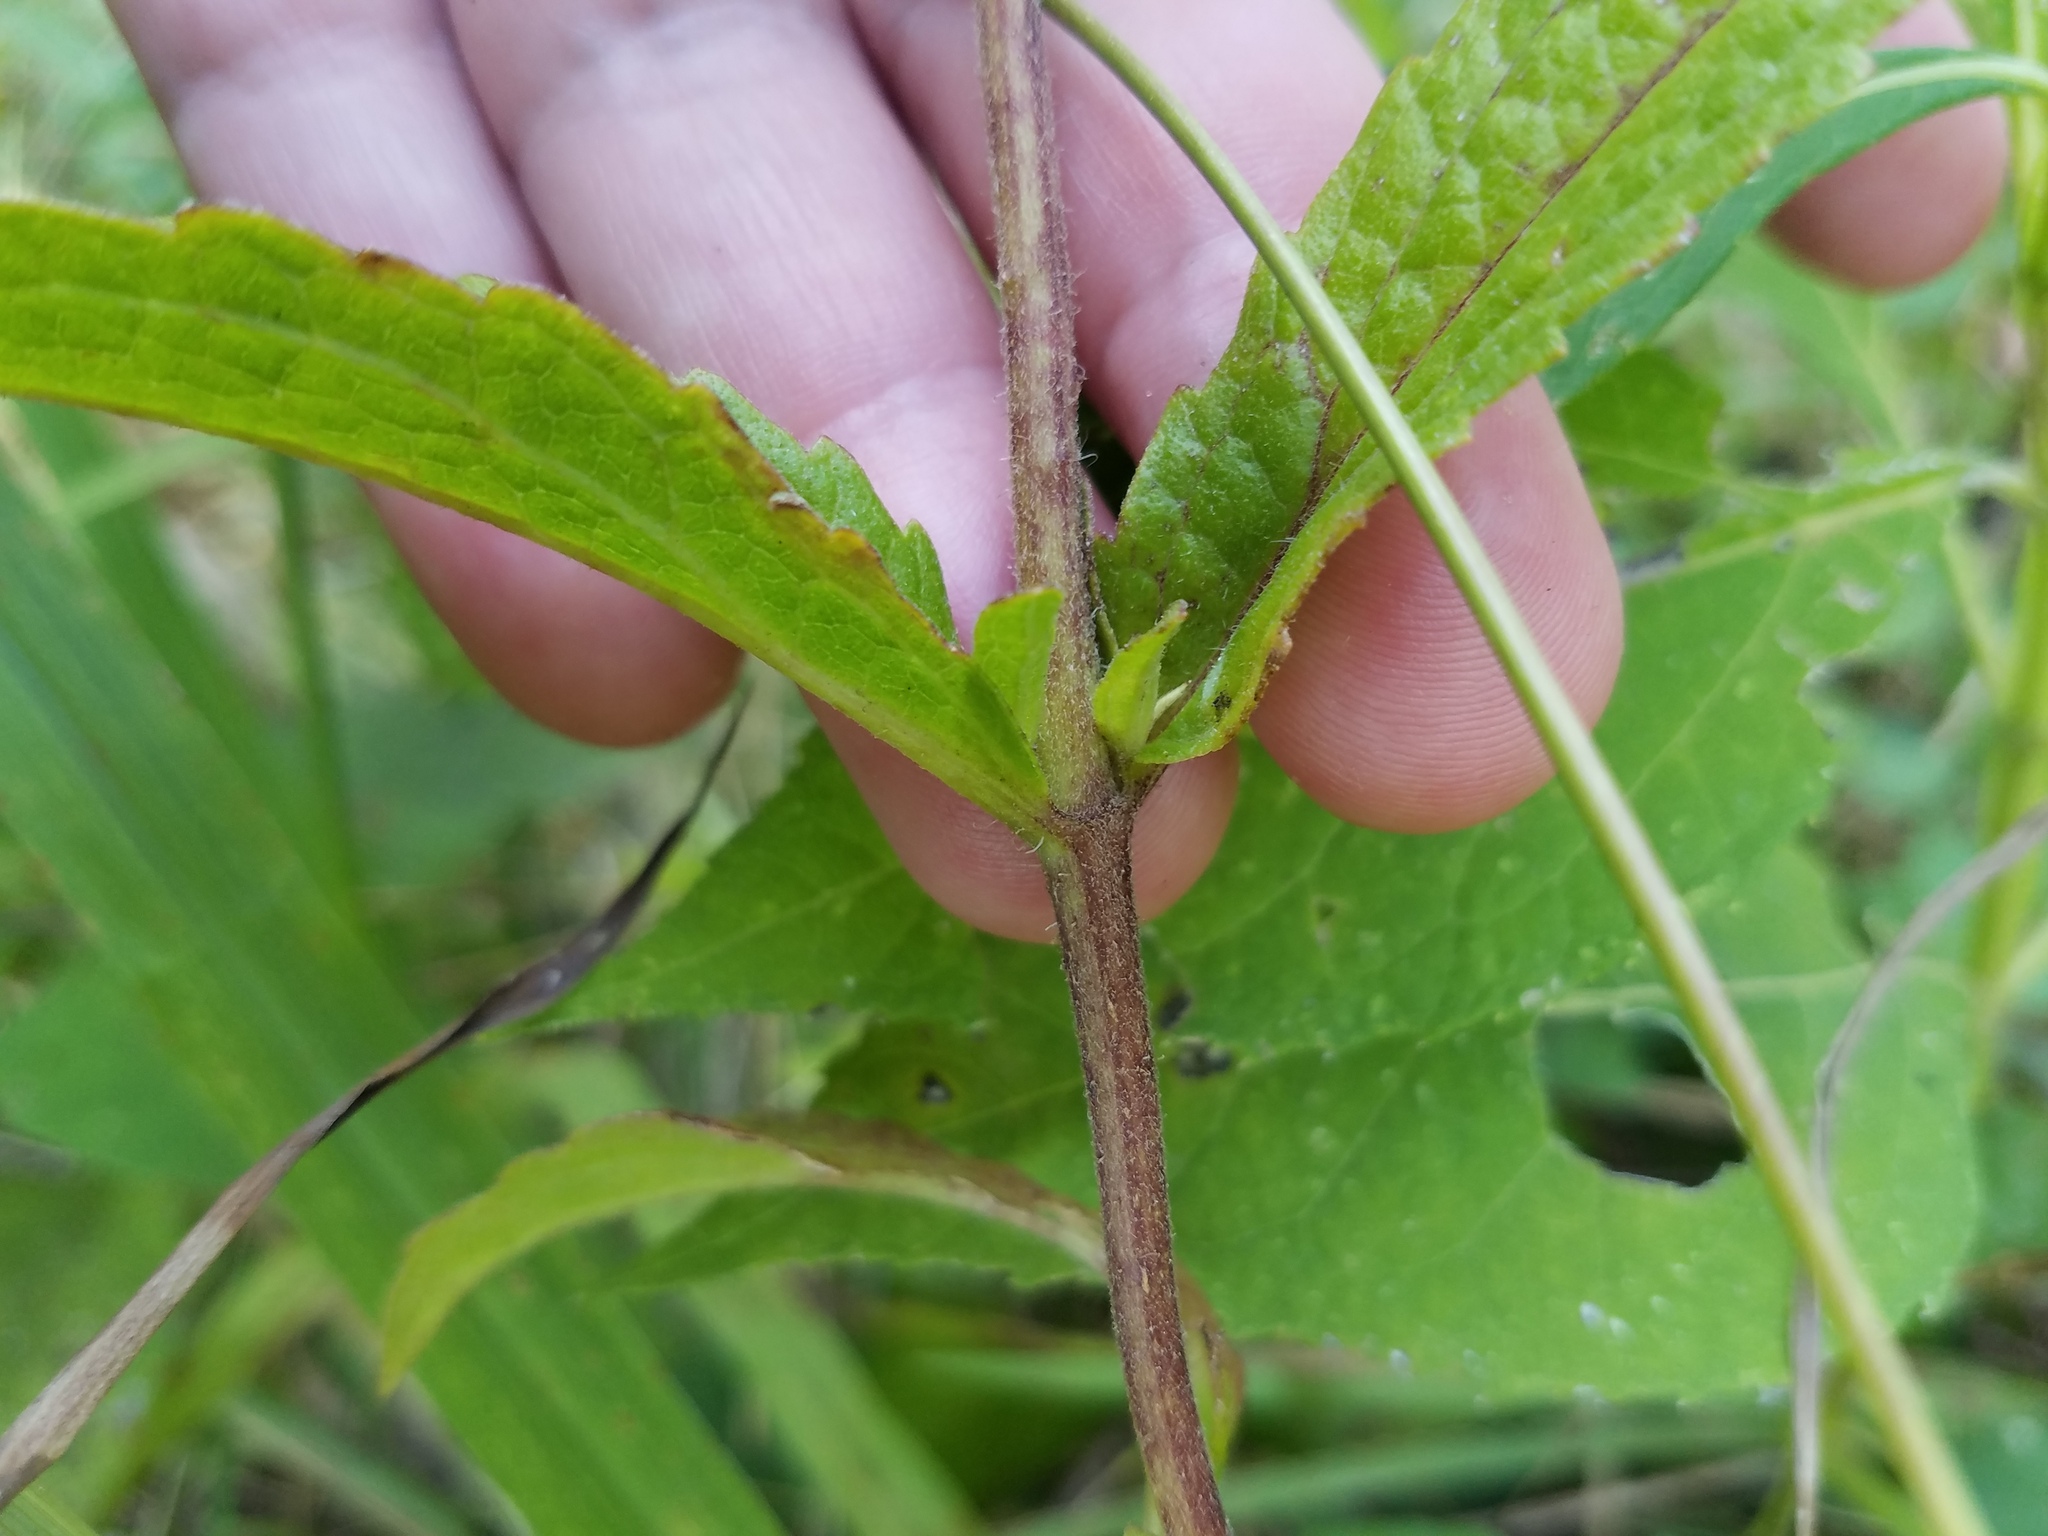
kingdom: Plantae
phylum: Tracheophyta
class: Magnoliopsida
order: Asterales
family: Asteraceae
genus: Eupatorium
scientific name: Eupatorium album
